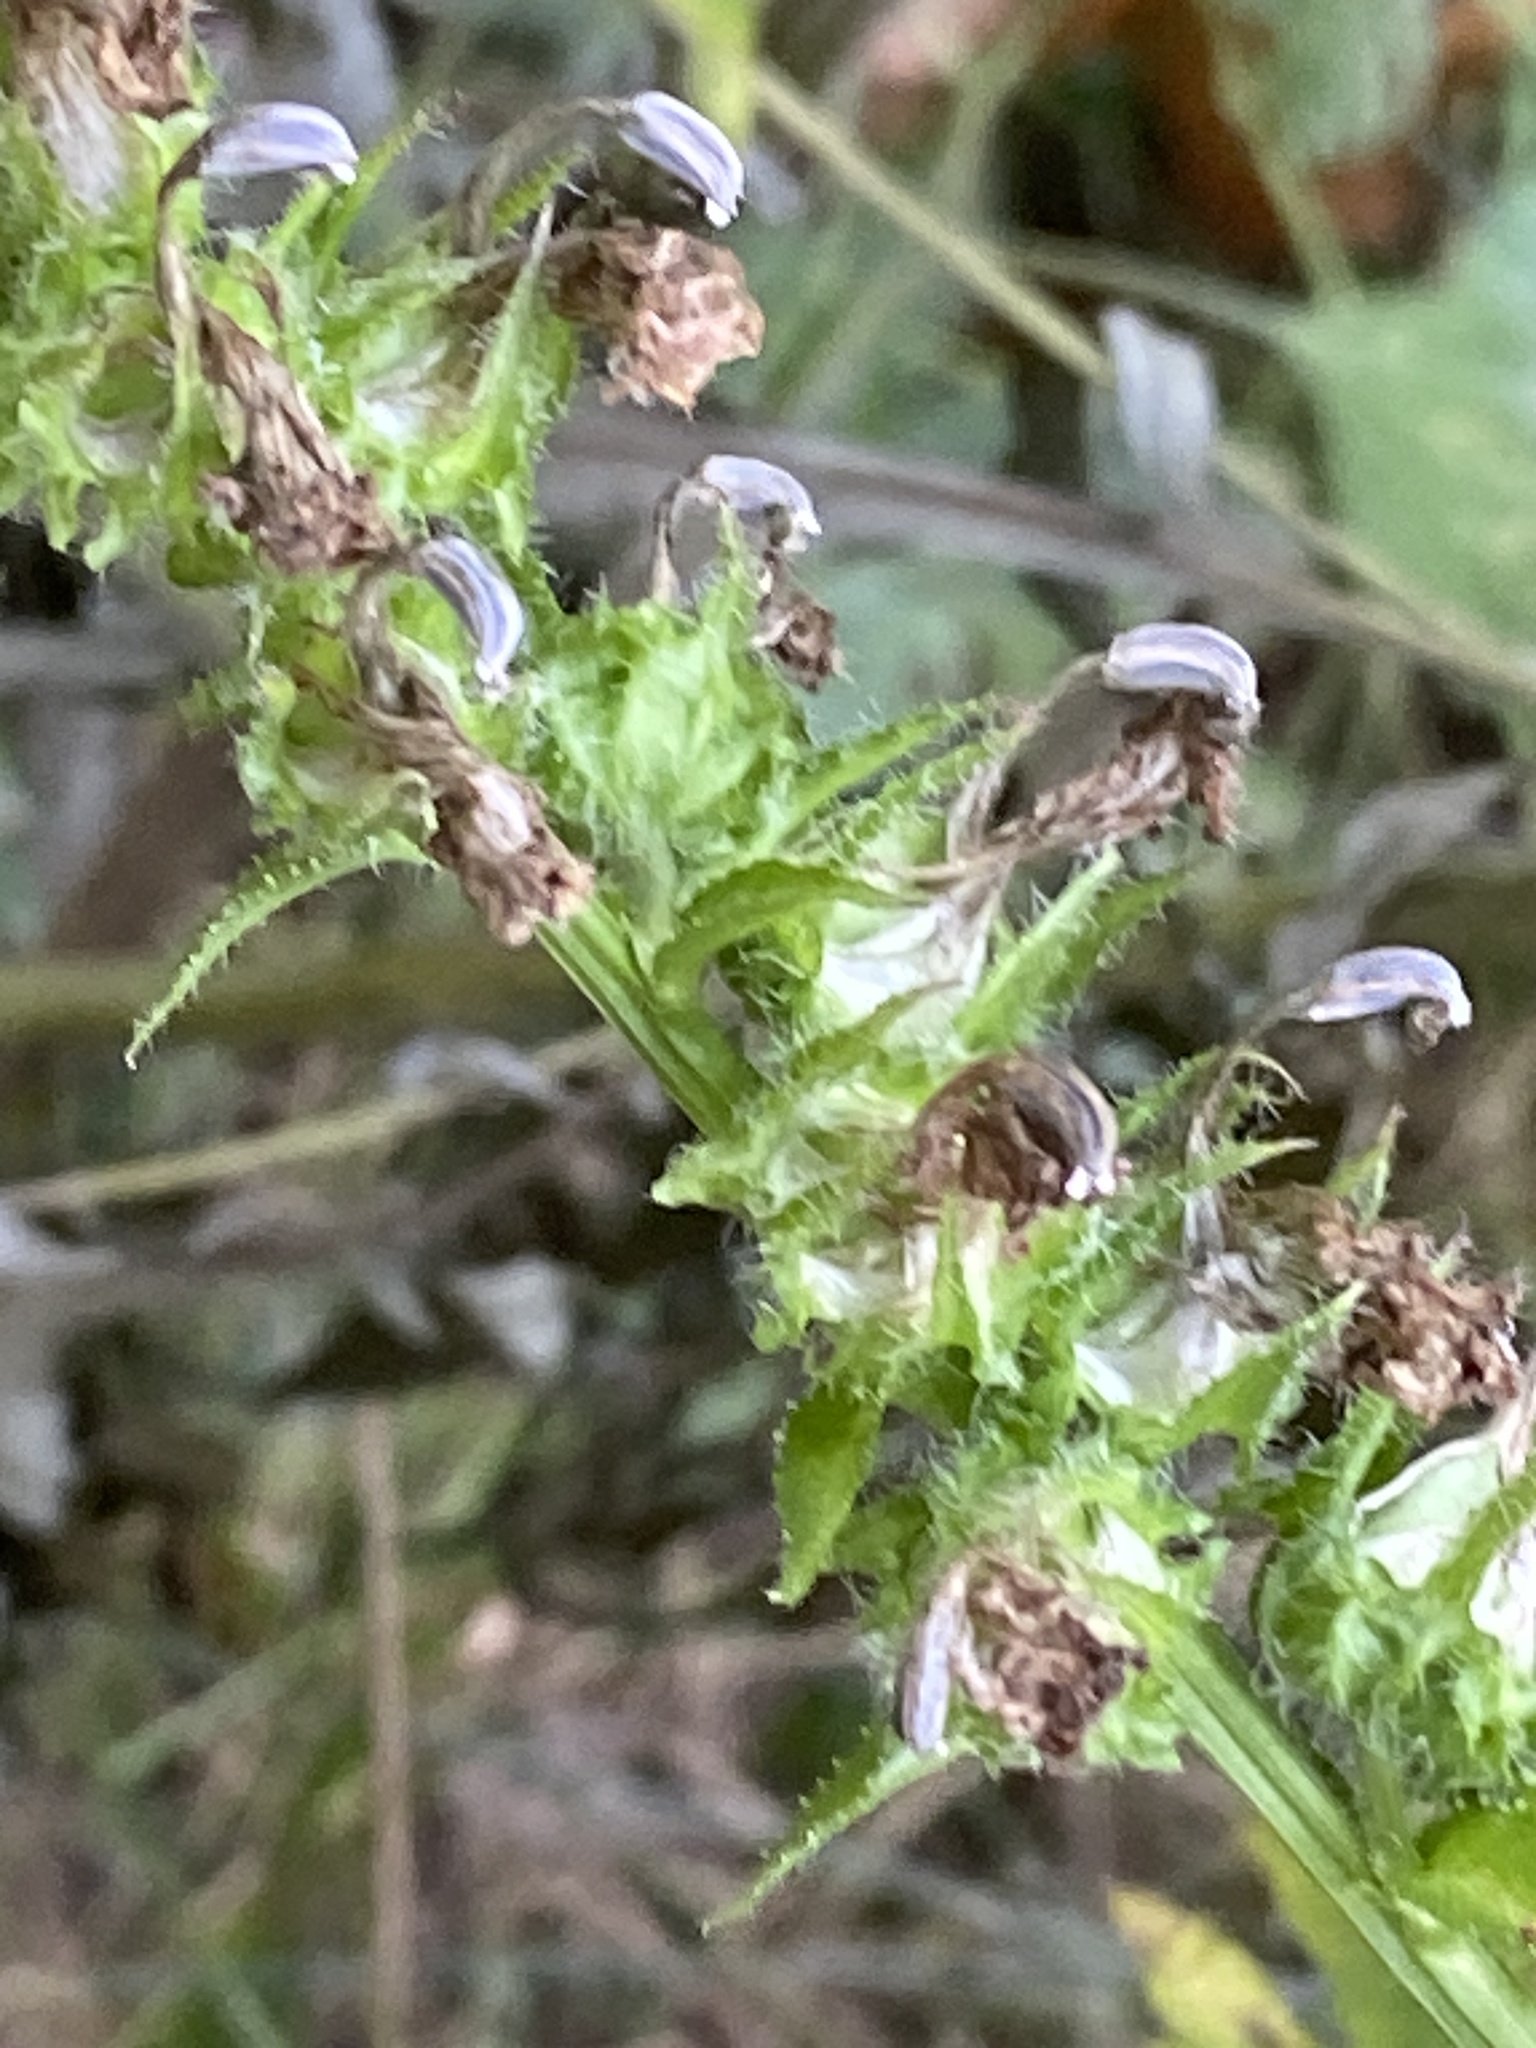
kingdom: Plantae
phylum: Tracheophyta
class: Magnoliopsida
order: Asterales
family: Campanulaceae
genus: Lobelia
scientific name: Lobelia siphilitica
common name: Great lobelia
